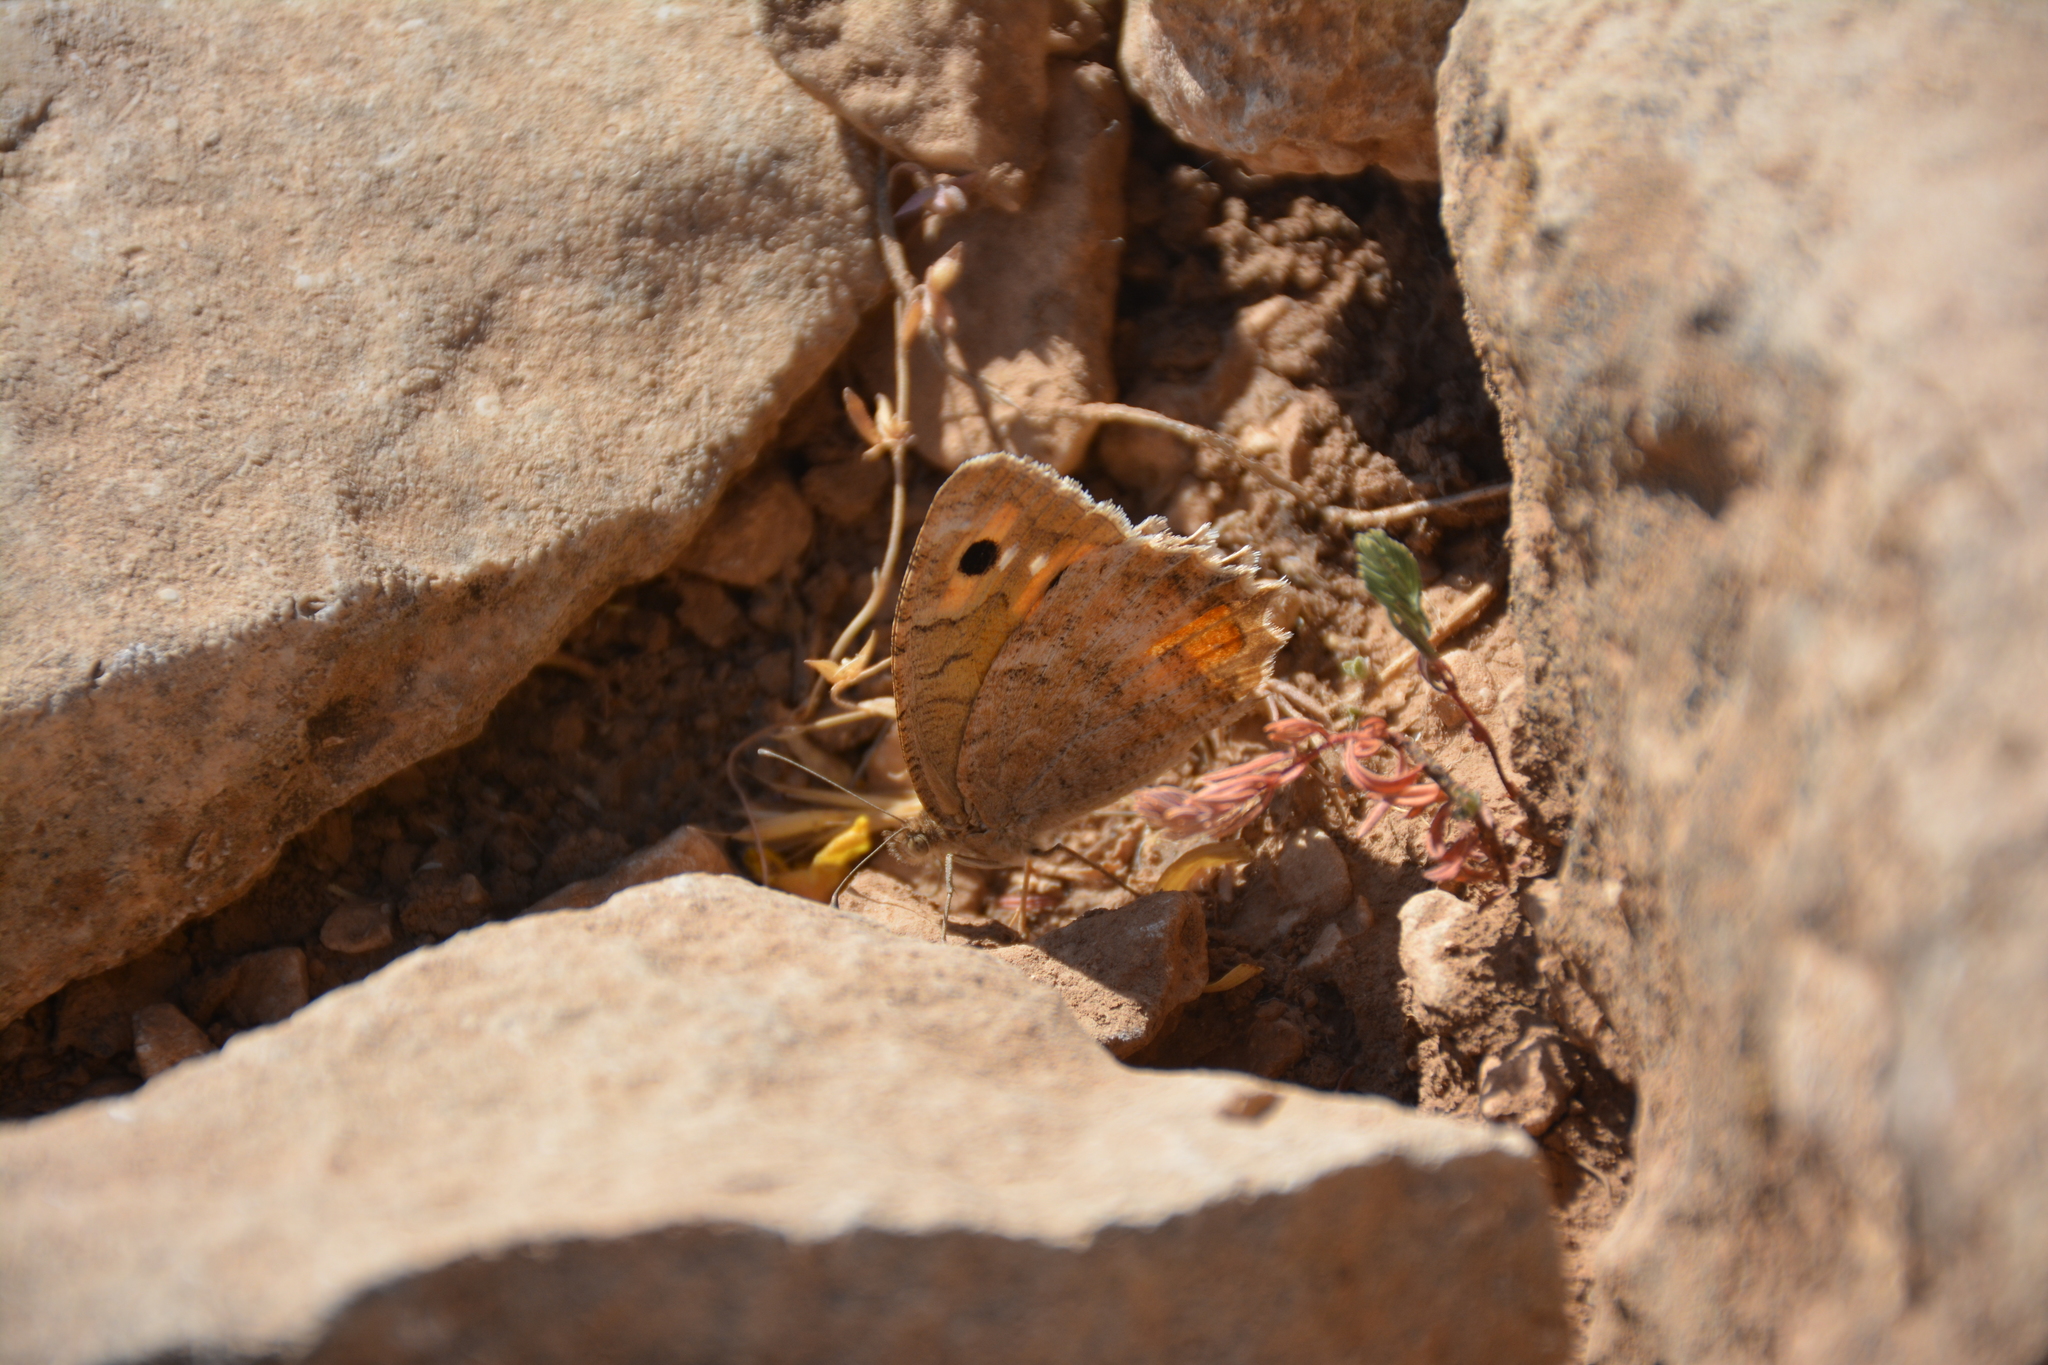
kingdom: Animalia
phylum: Arthropoda
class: Insecta
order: Lepidoptera
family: Nymphalidae
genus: Pseudochazara
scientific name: Pseudochazara pelopea
